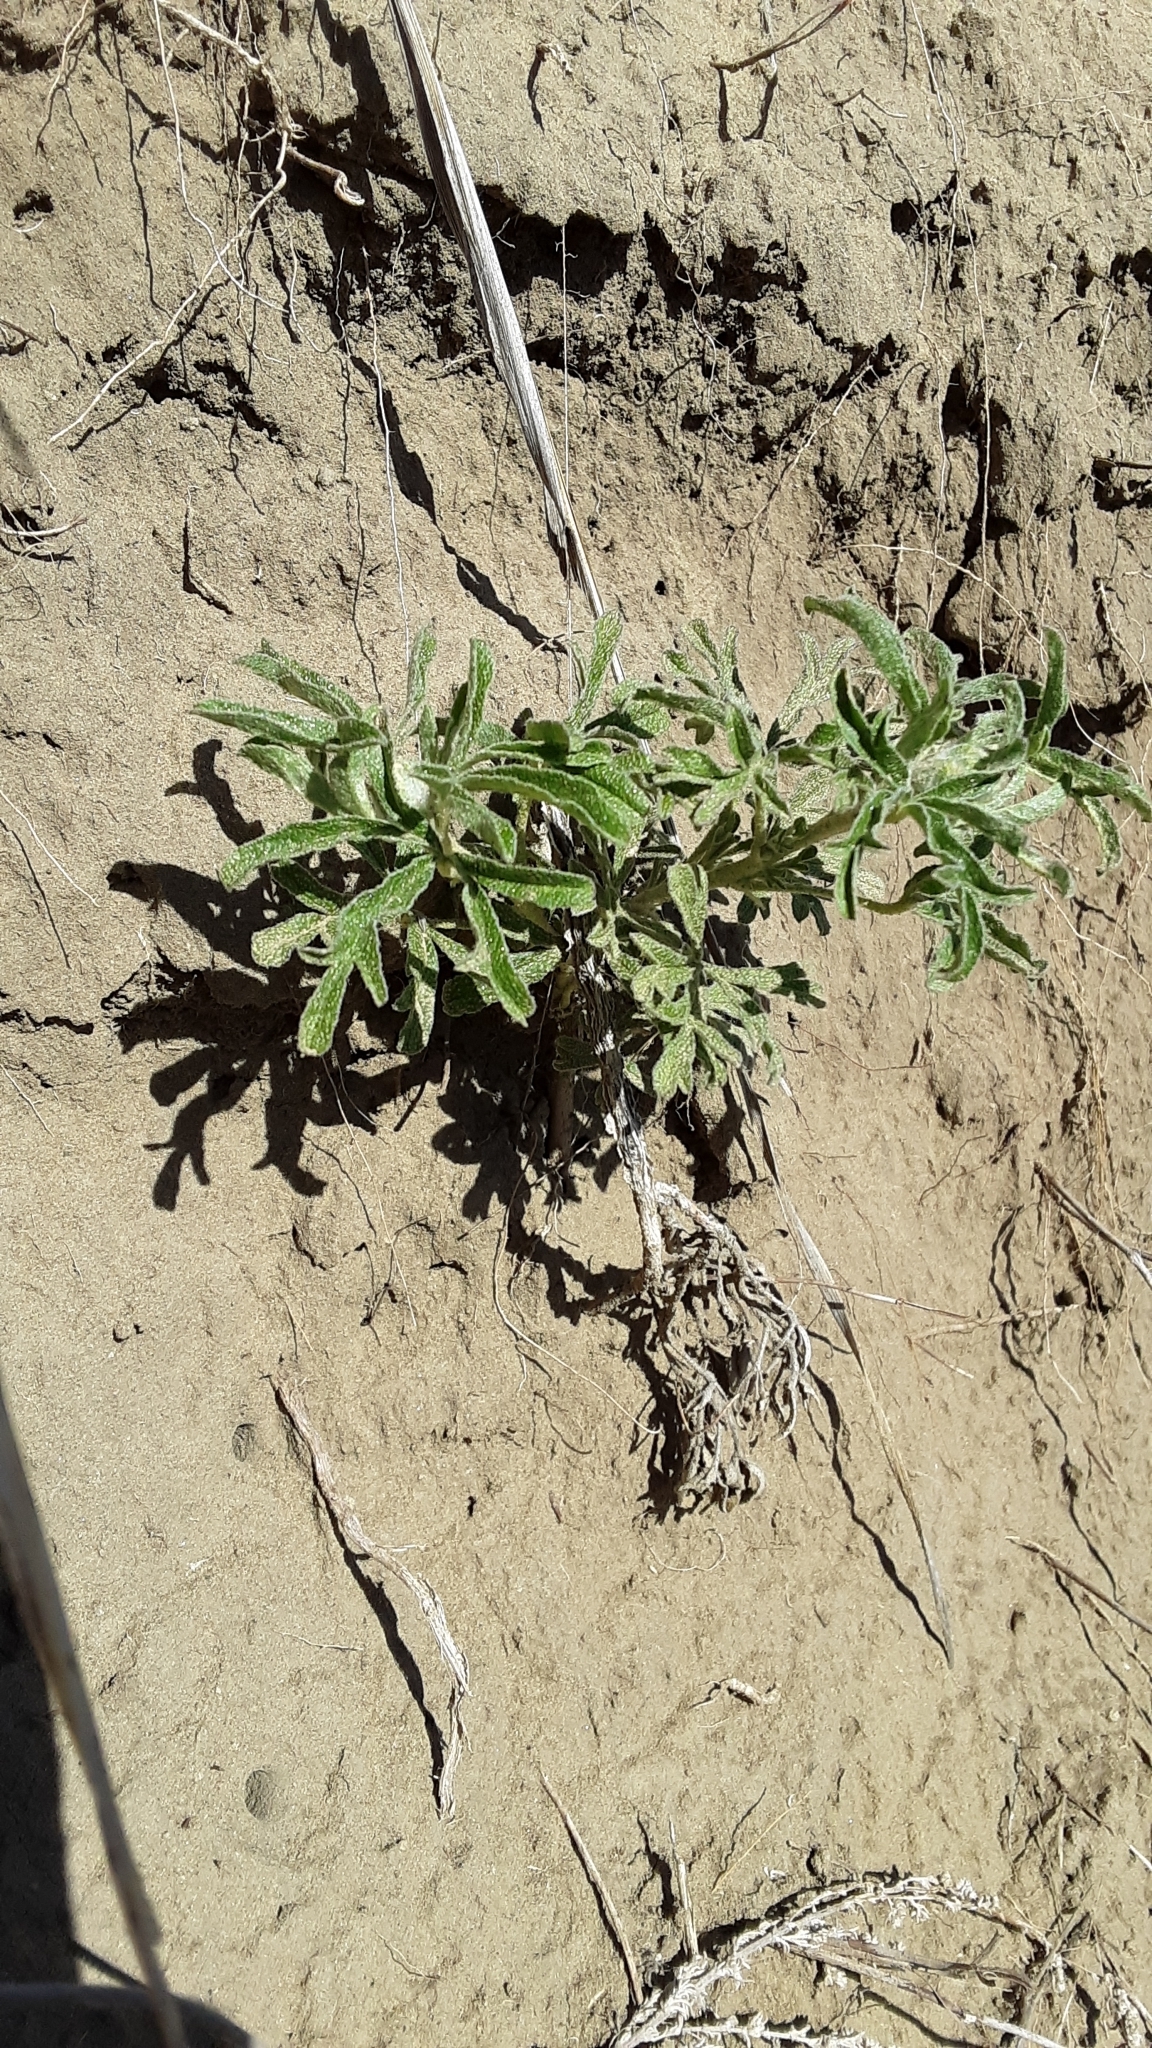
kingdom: Plantae
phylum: Tracheophyta
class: Magnoliopsida
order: Malvales
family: Malvaceae
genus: Sphaeralcea
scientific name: Sphaeralcea coccinea
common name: Moss-rose
